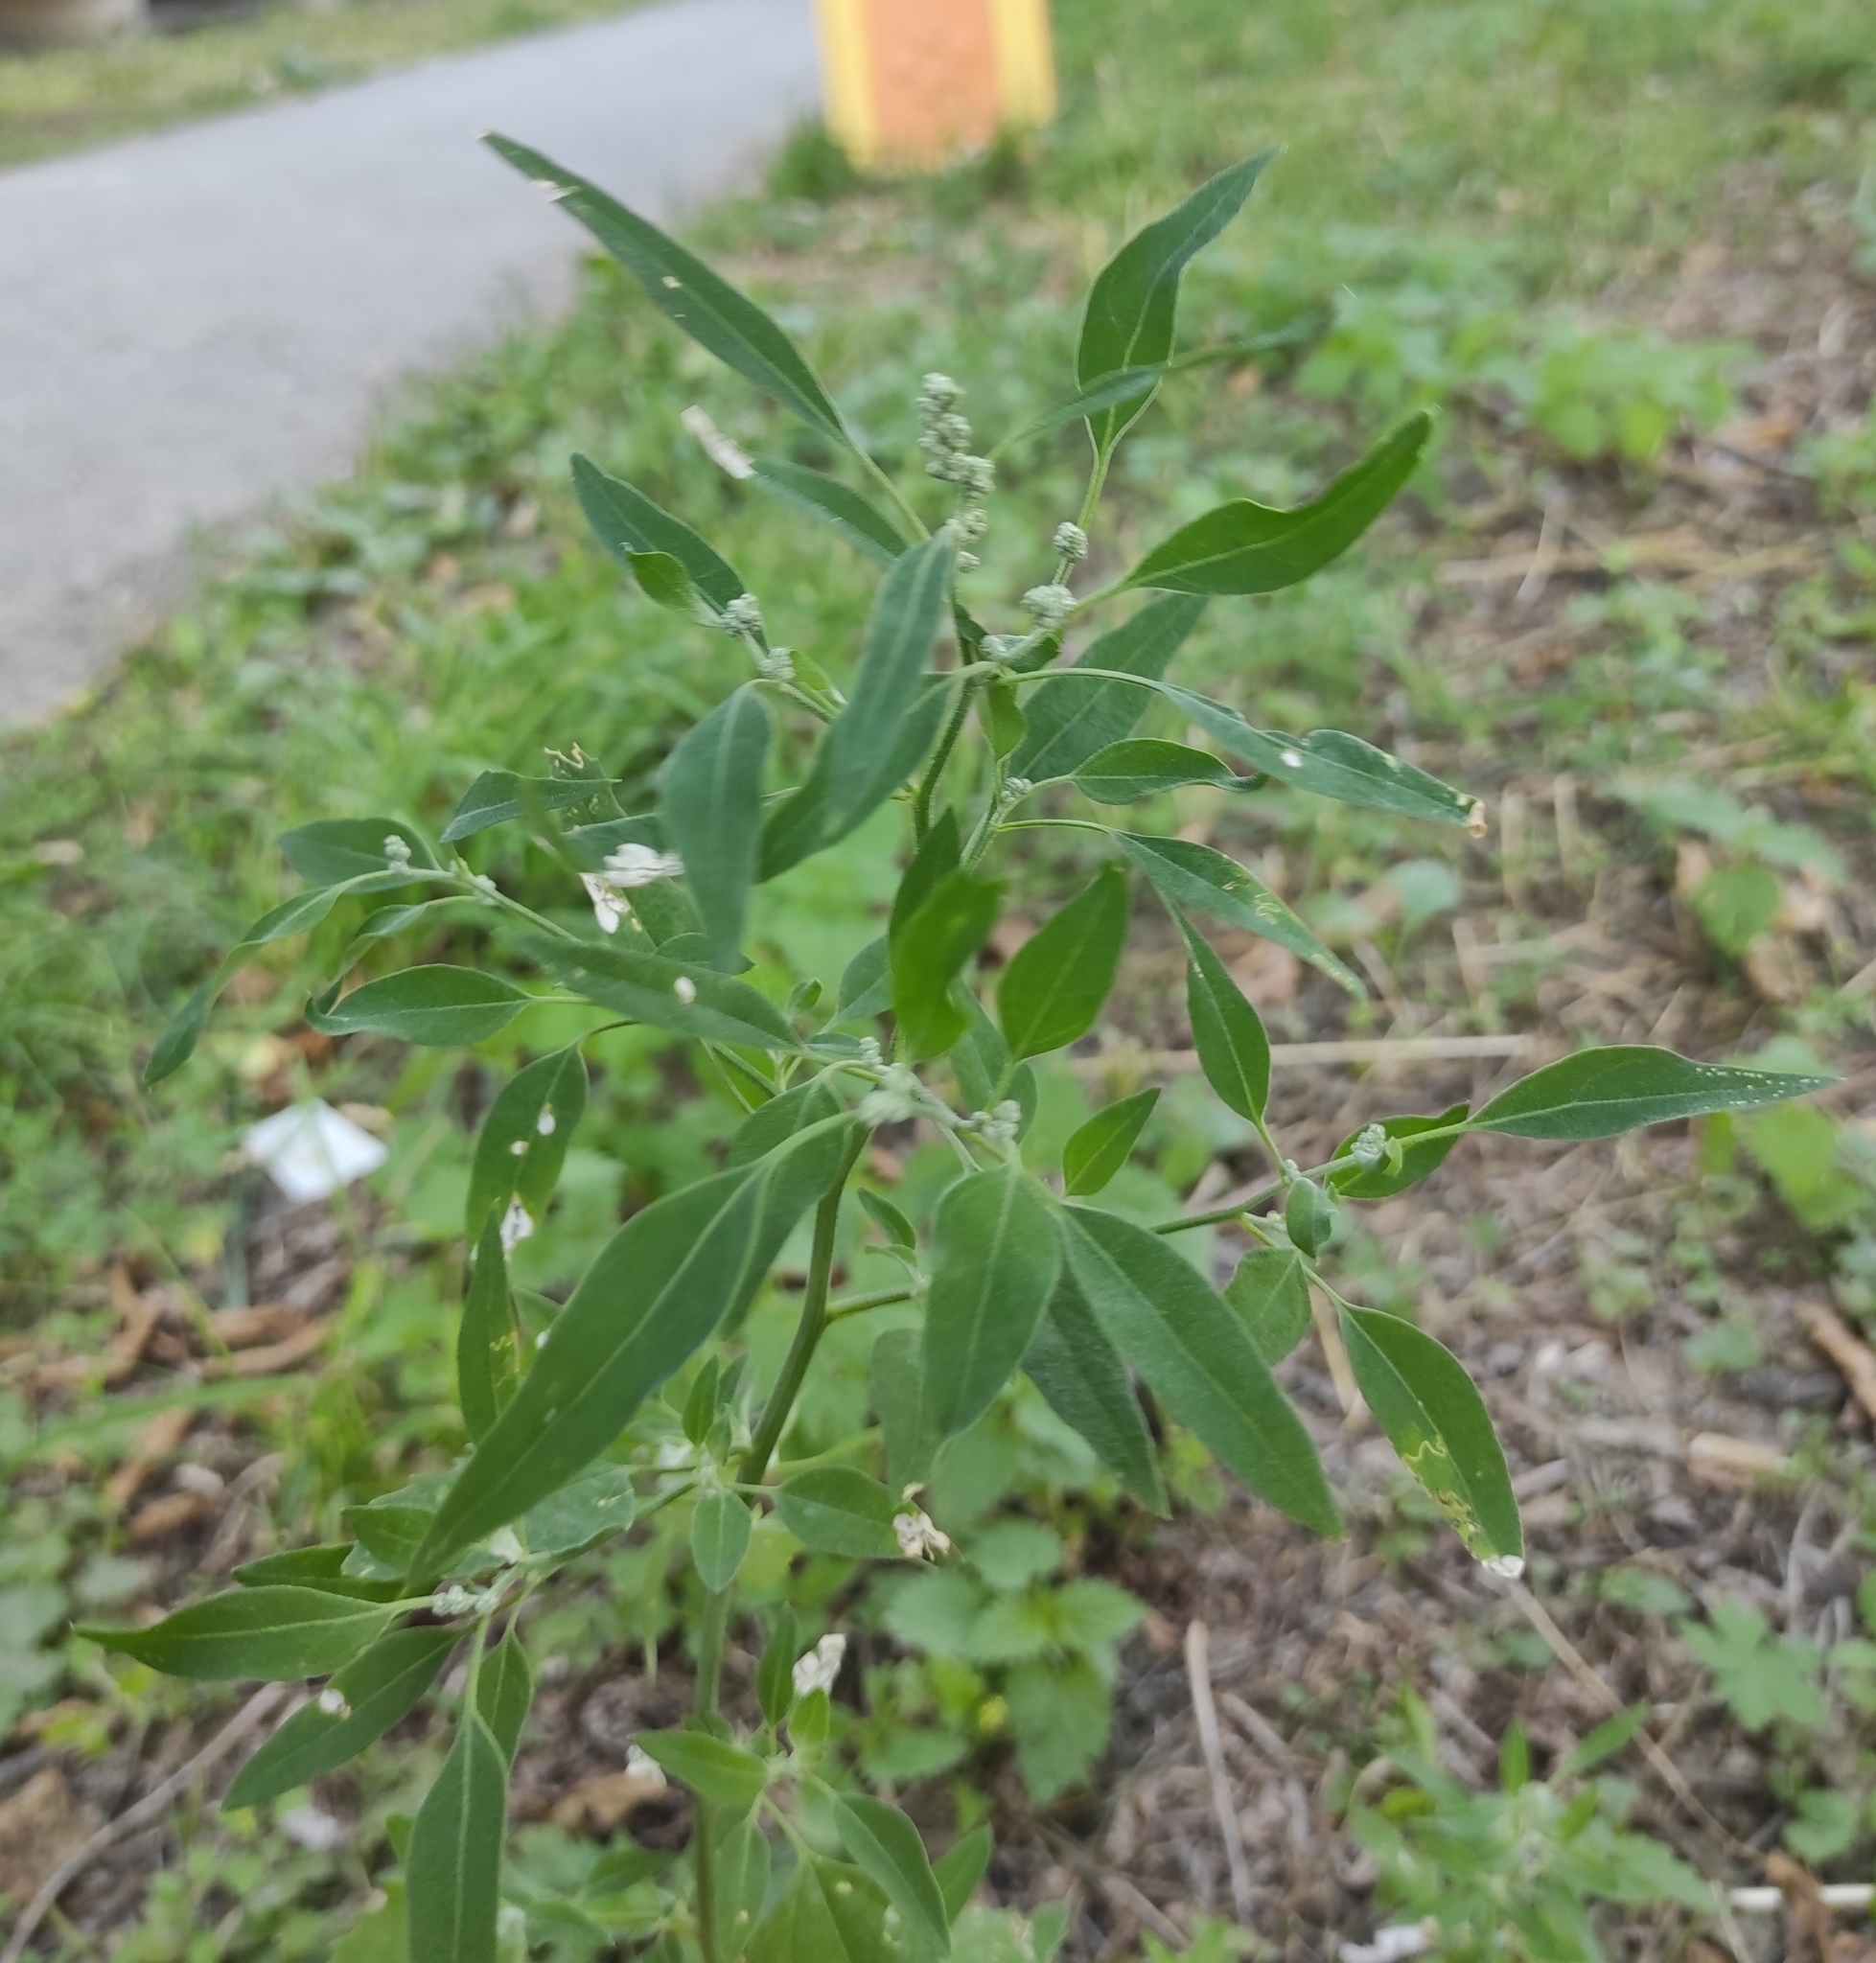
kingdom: Plantae
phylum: Tracheophyta
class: Magnoliopsida
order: Caryophyllales
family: Amaranthaceae
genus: Chenopodium
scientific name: Chenopodium album
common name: Fat-hen
